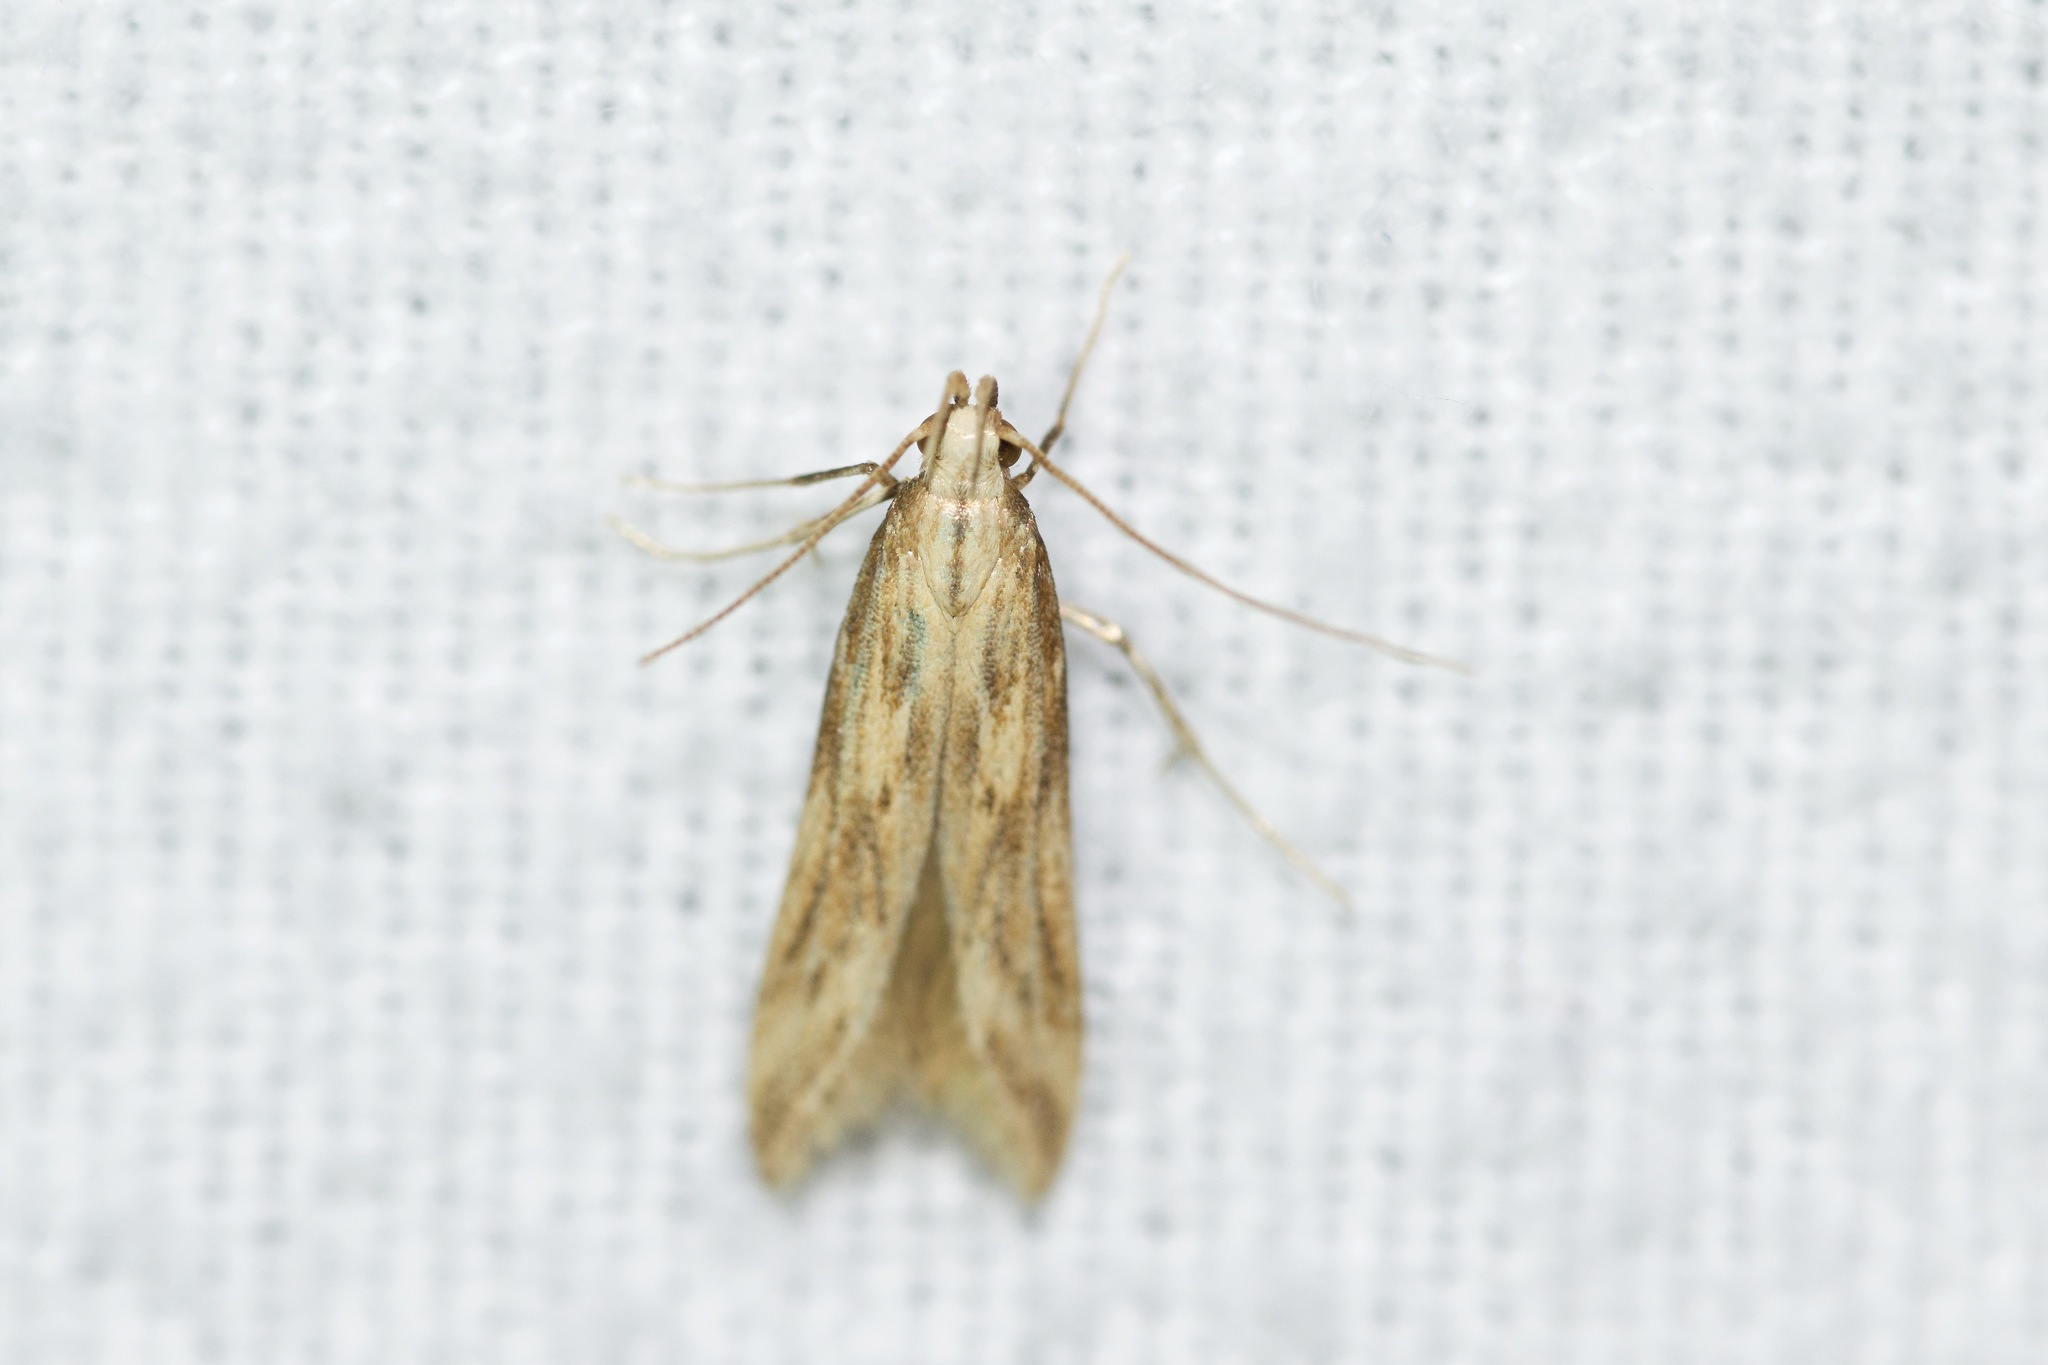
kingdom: Animalia
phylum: Arthropoda
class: Insecta
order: Lepidoptera
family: Gelechiidae
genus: Metzneria
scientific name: Metzneria lappella
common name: Burdock neb
